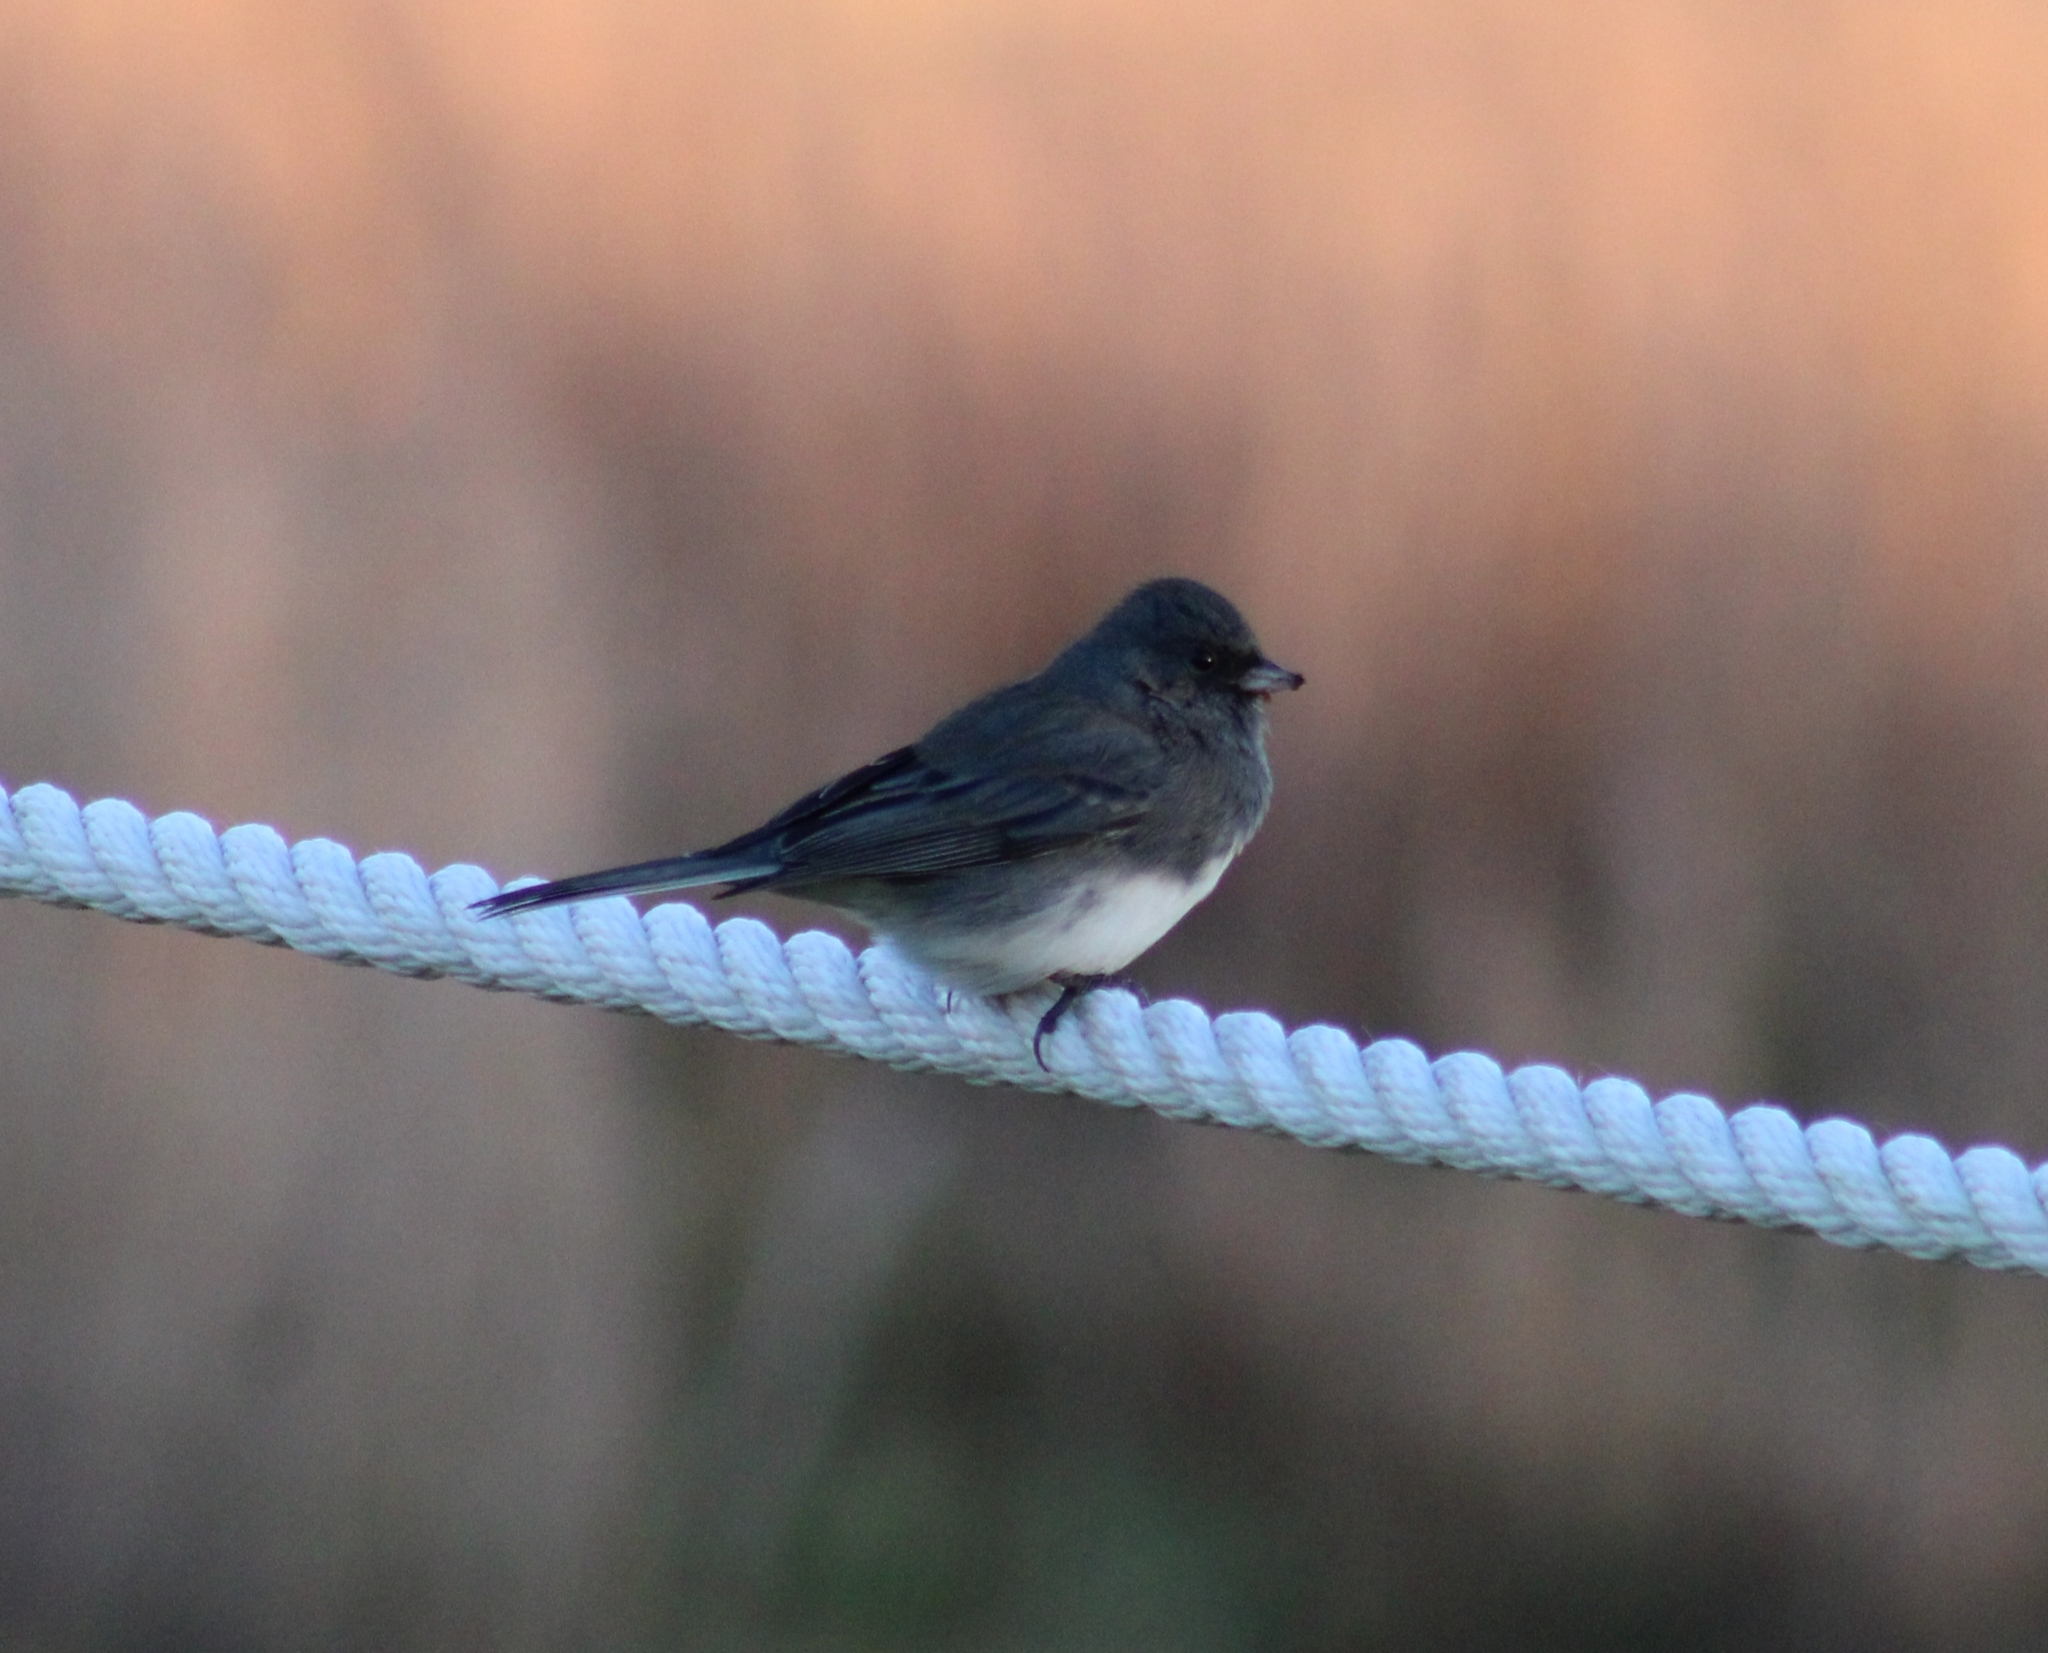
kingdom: Animalia
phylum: Chordata
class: Aves
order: Passeriformes
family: Passerellidae
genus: Junco
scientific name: Junco hyemalis
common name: Dark-eyed junco
